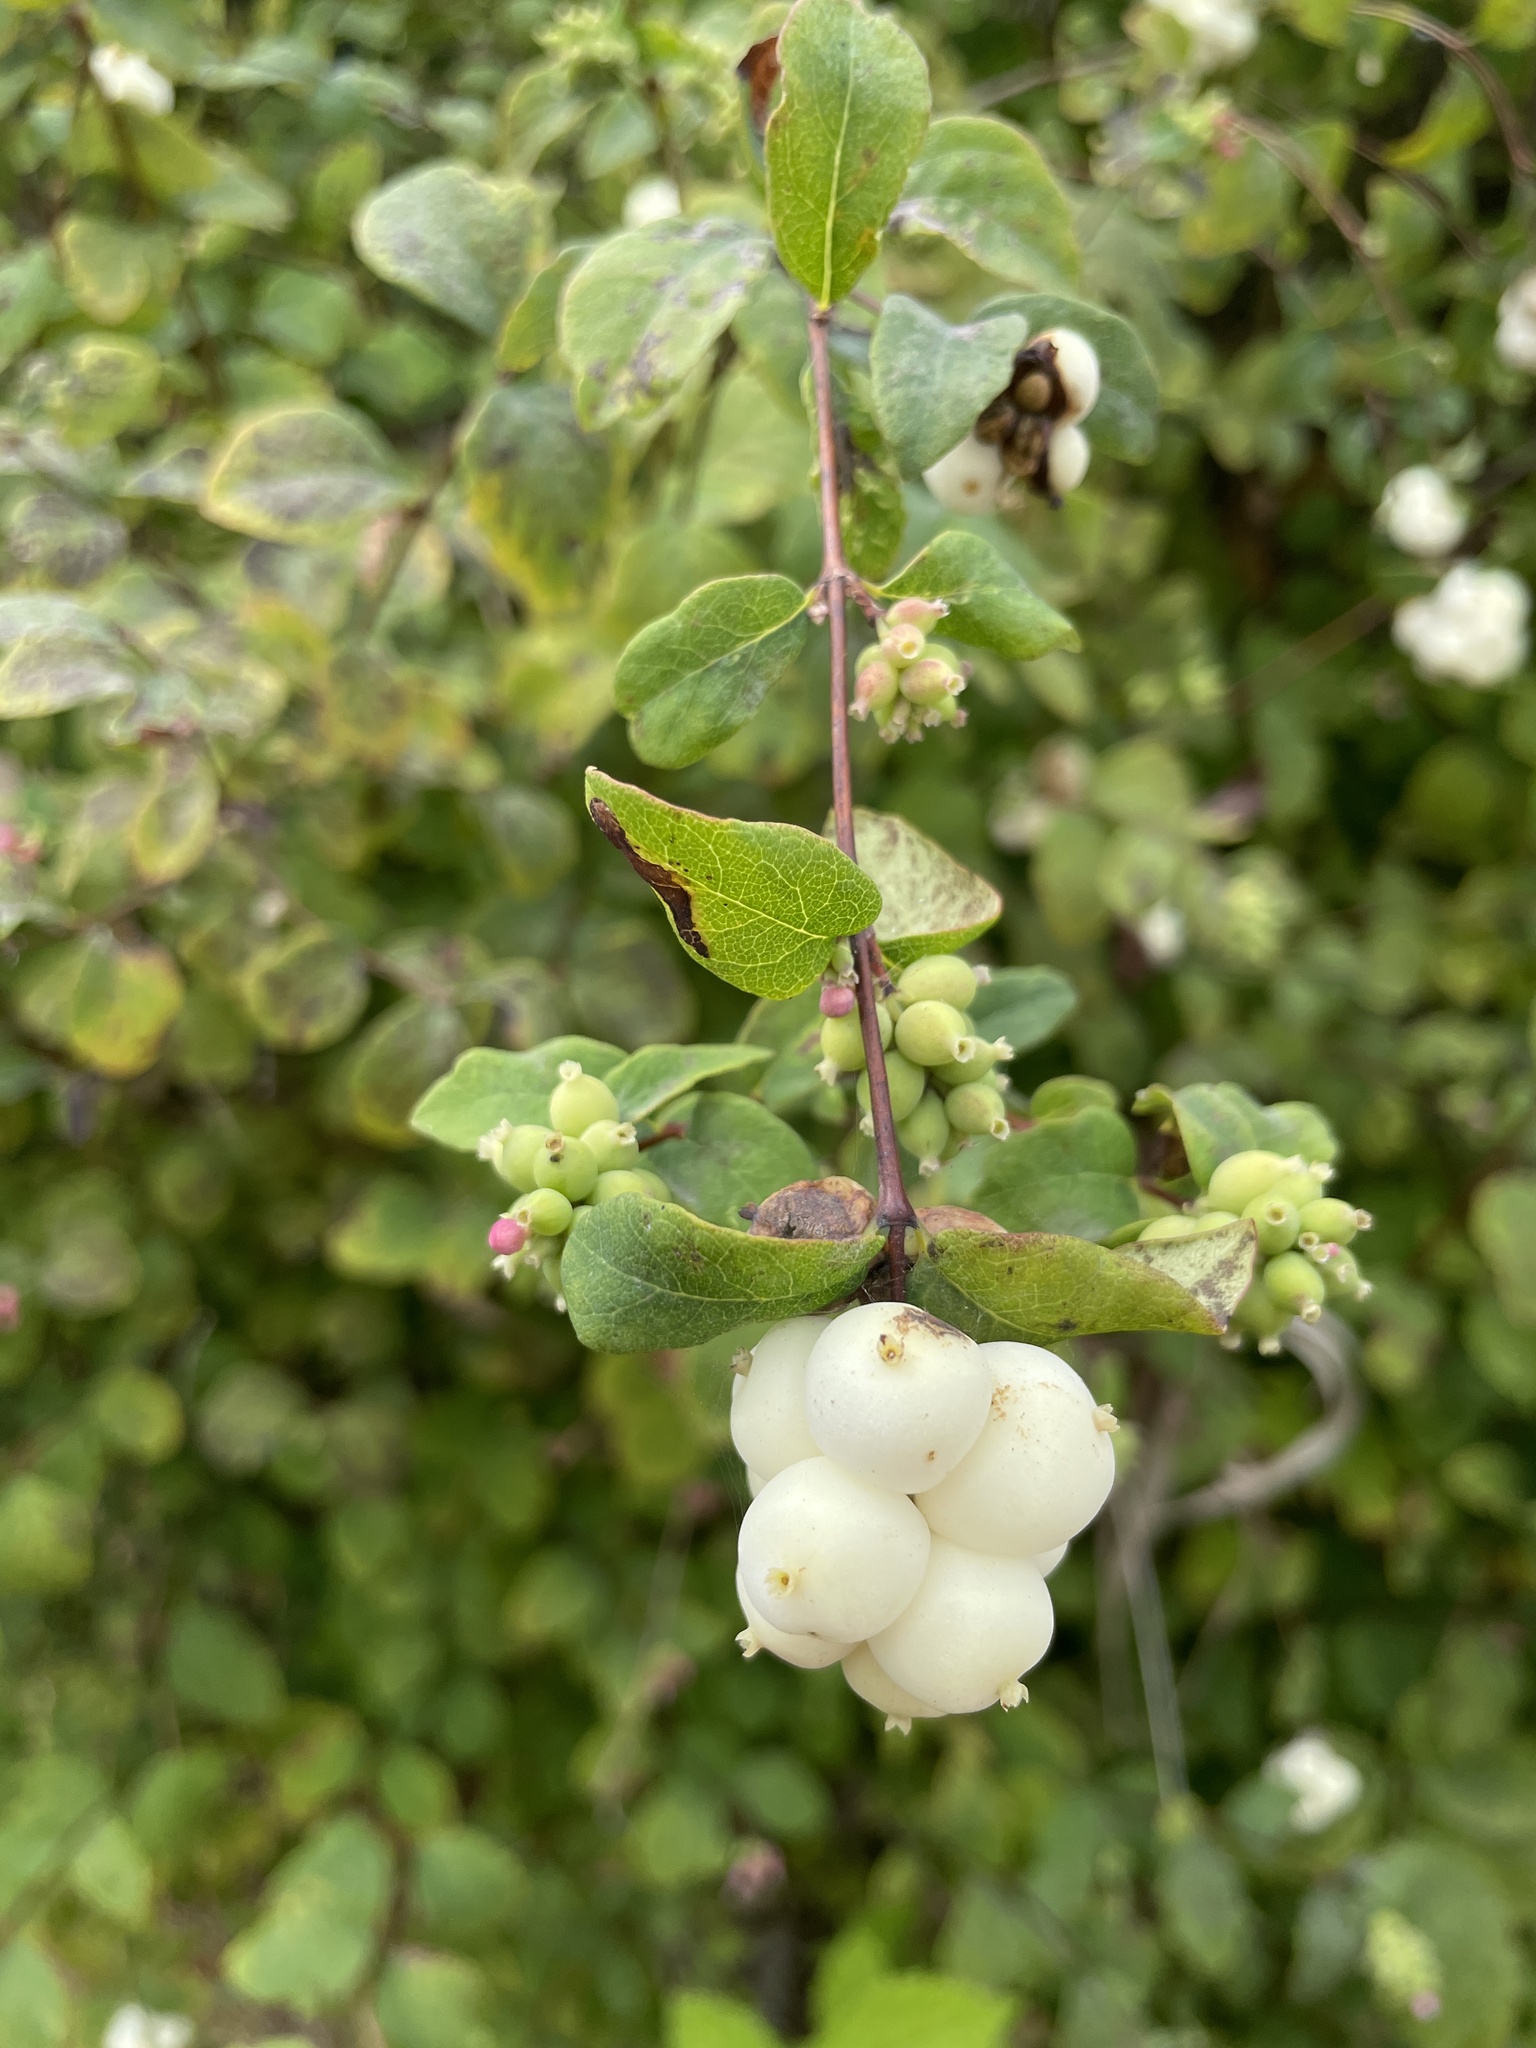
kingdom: Plantae
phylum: Tracheophyta
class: Magnoliopsida
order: Dipsacales
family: Caprifoliaceae
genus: Symphoricarpos
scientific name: Symphoricarpos albus
